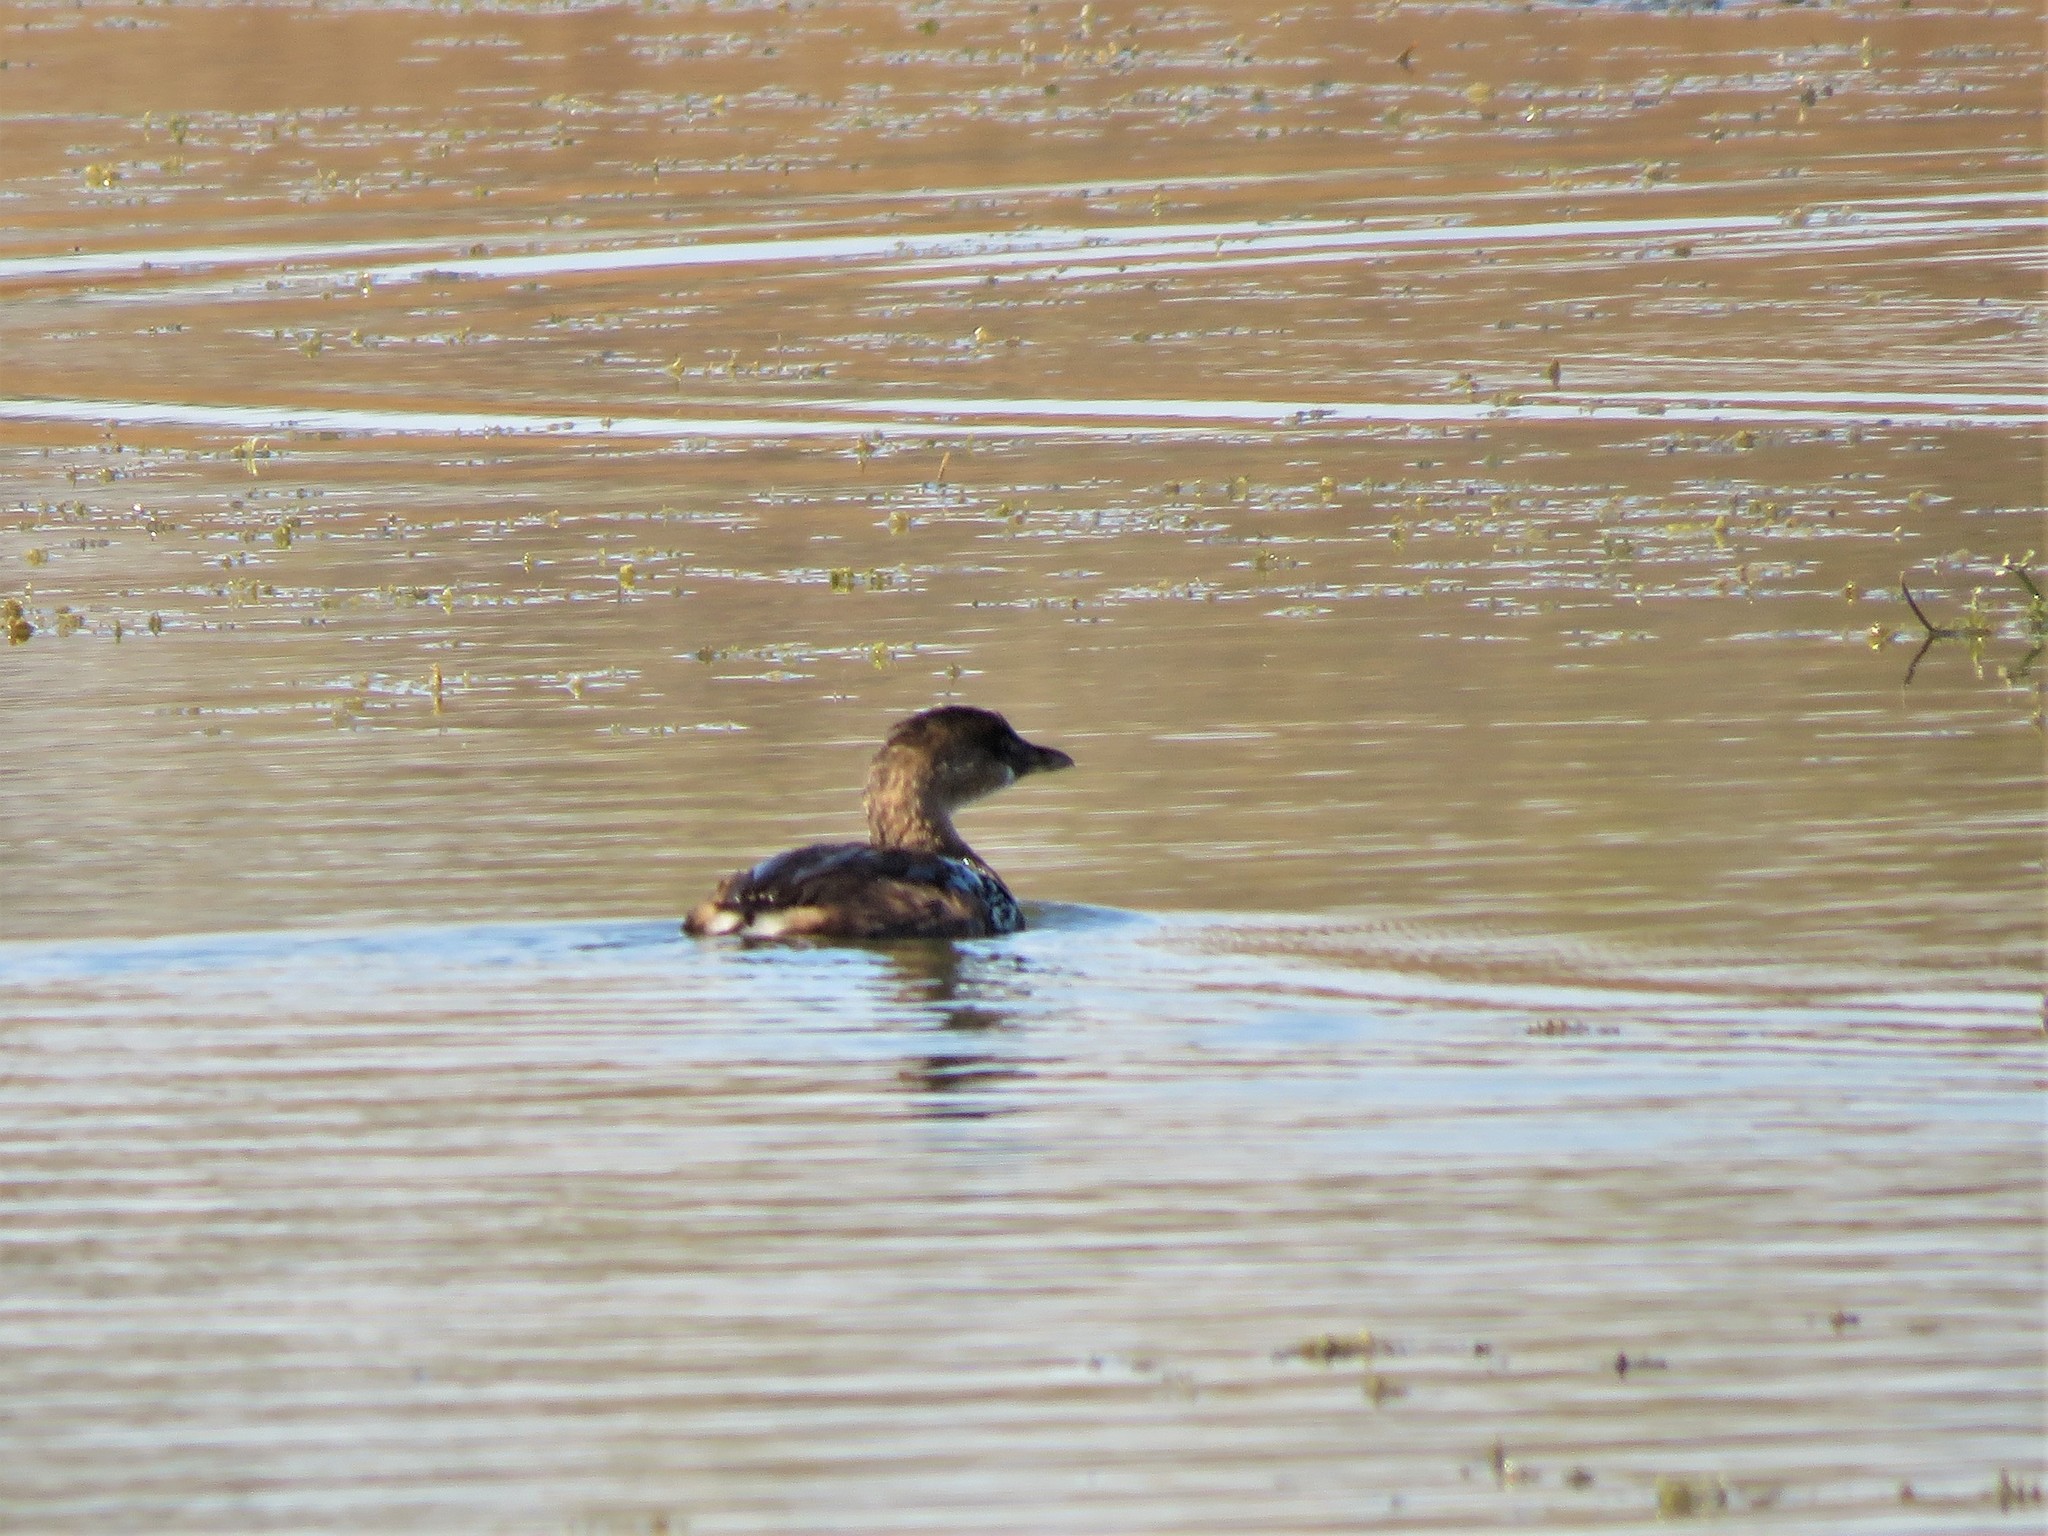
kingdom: Animalia
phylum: Chordata
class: Aves
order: Podicipediformes
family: Podicipedidae
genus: Podilymbus
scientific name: Podilymbus podiceps
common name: Pied-billed grebe
